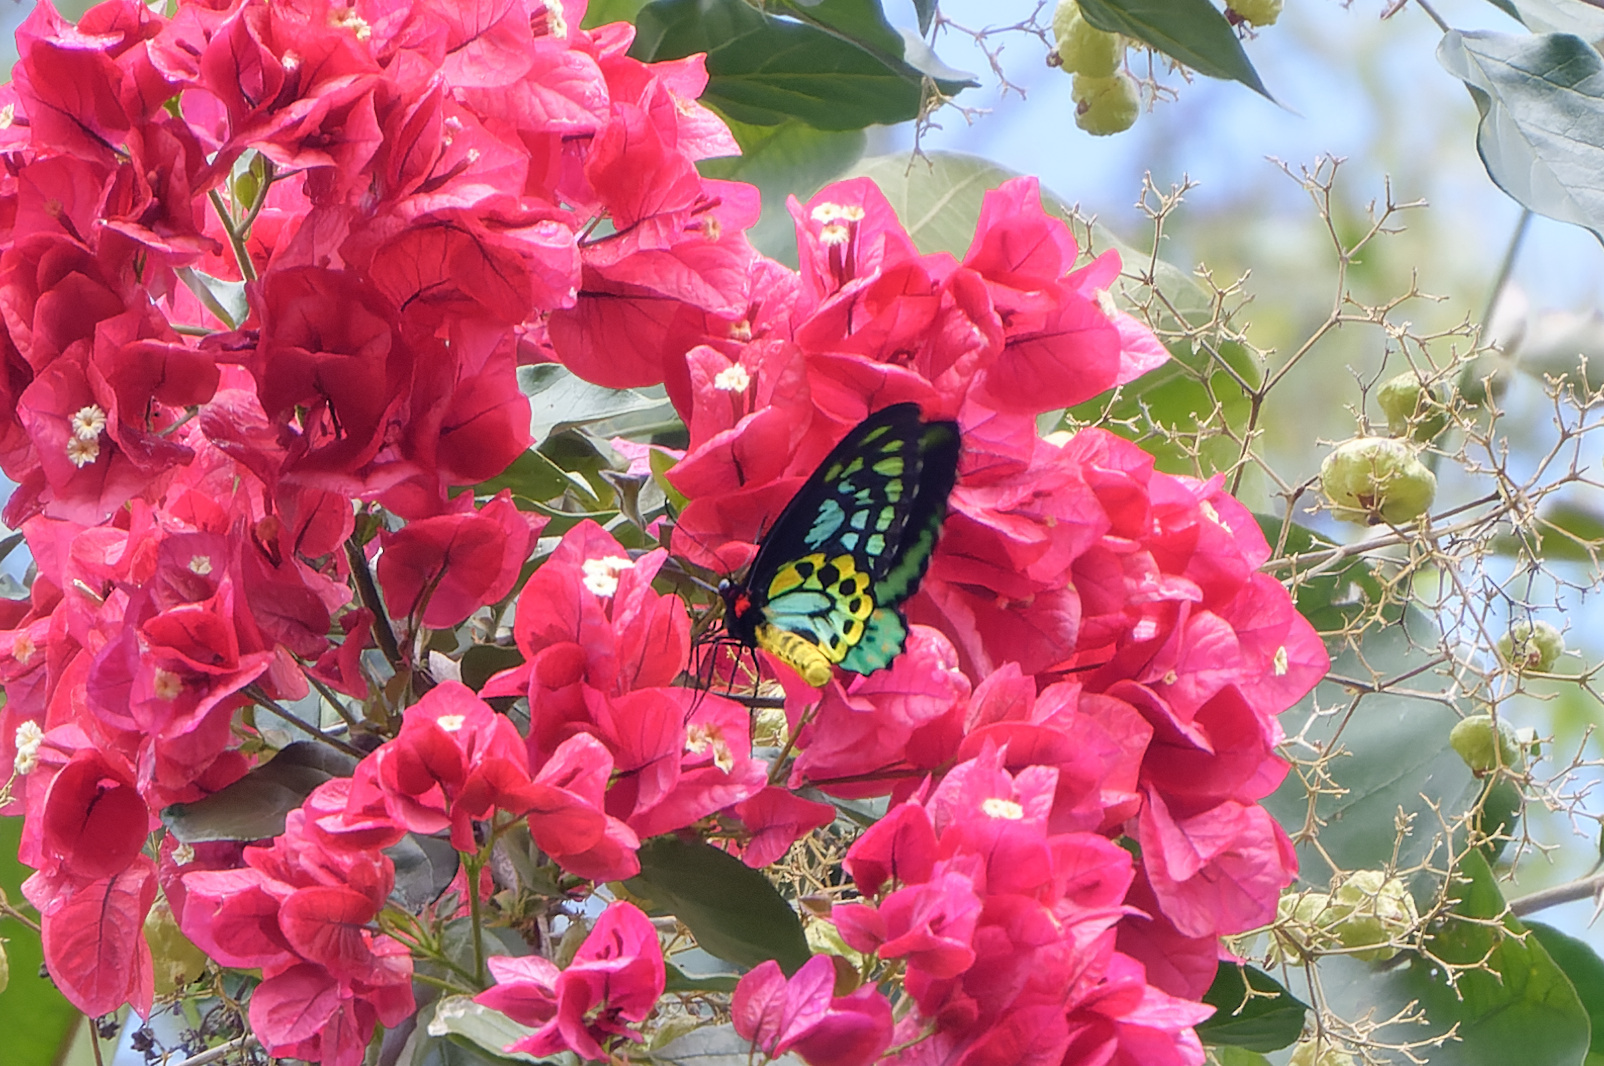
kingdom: Animalia
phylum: Arthropoda
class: Insecta
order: Lepidoptera
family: Papilionidae
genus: Ornithoptera
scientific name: Ornithoptera euphorion
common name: Cairns birdwing
